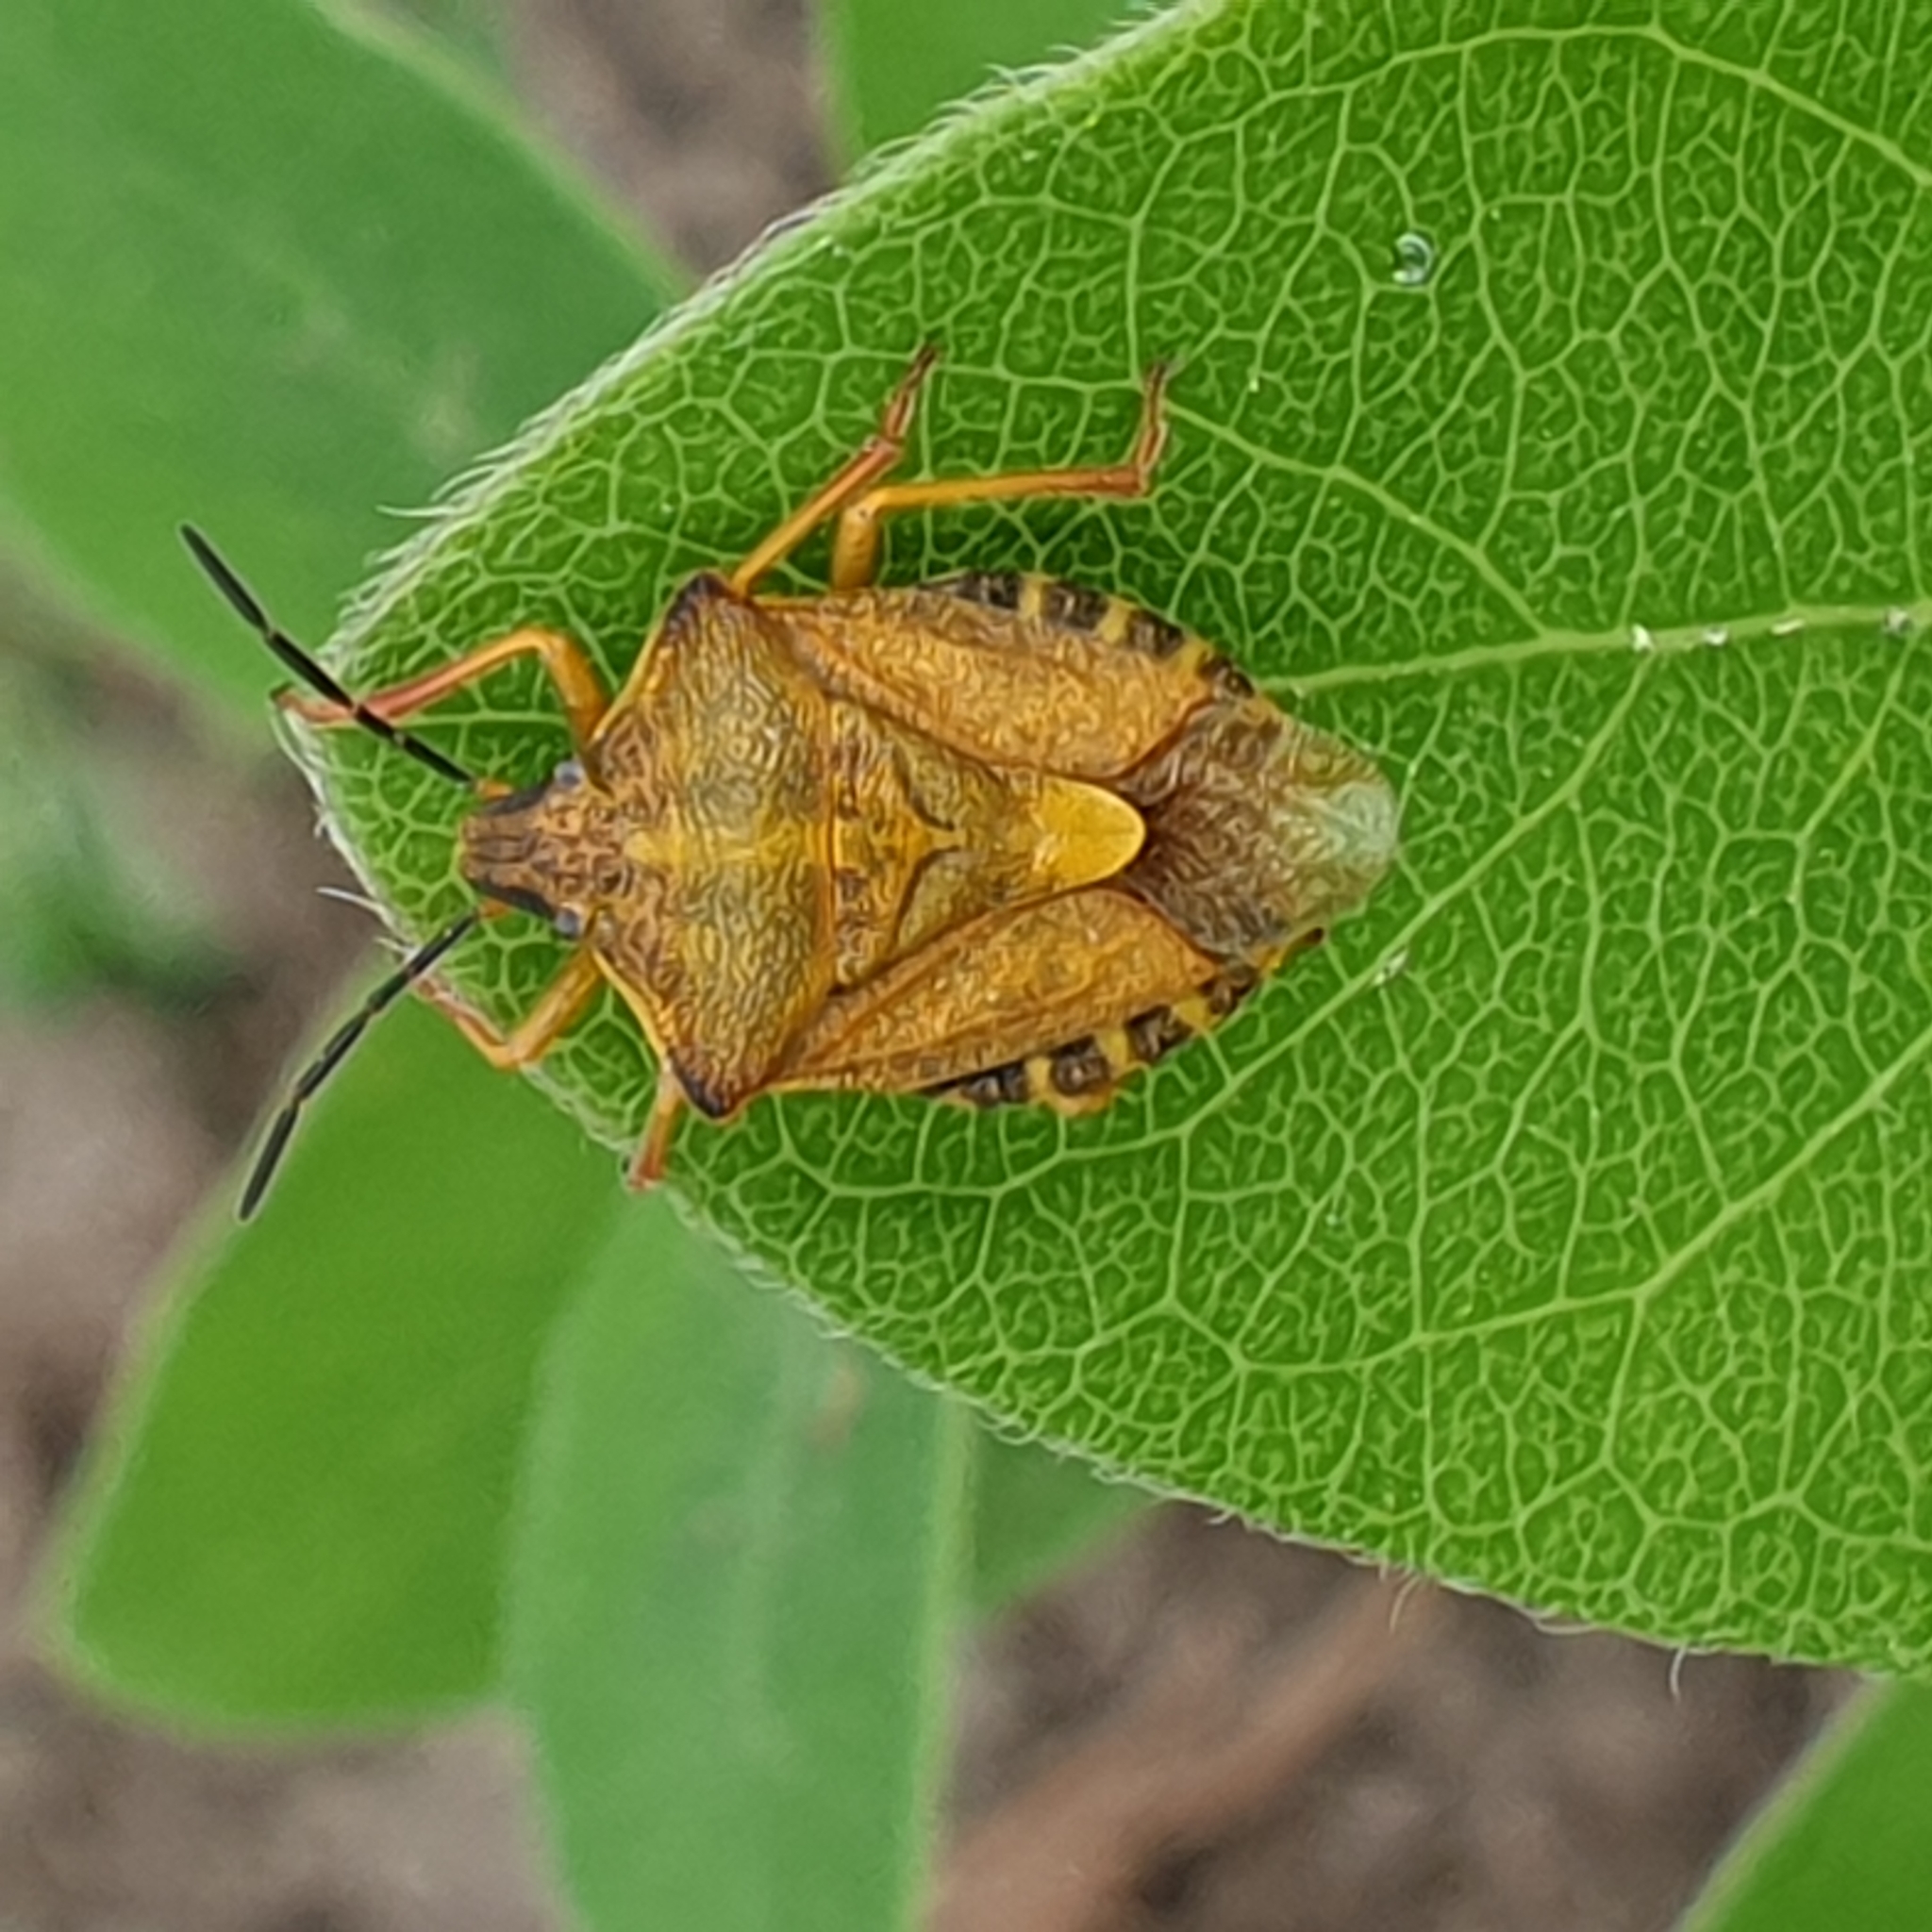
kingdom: Animalia
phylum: Arthropoda
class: Insecta
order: Hemiptera
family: Pentatomidae
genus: Carpocoris
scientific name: Carpocoris purpureipennis
